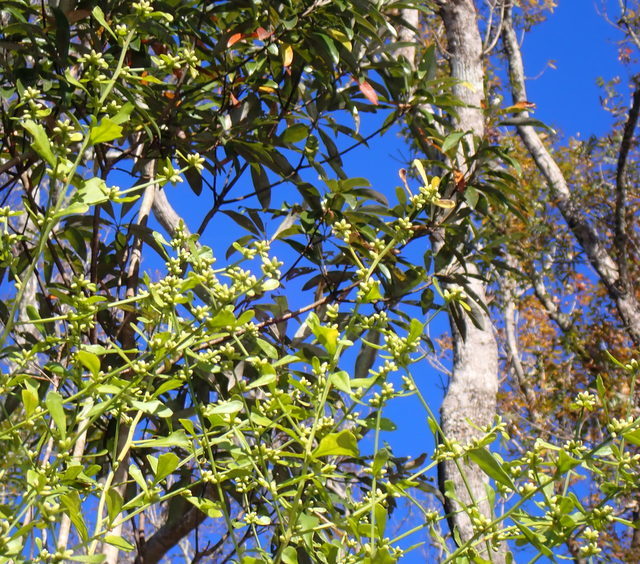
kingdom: Plantae
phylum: Tracheophyta
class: Magnoliopsida
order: Asterales
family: Asteraceae
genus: Baccharis
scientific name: Baccharis glomeruliflora
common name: Silverling groundsel bush
